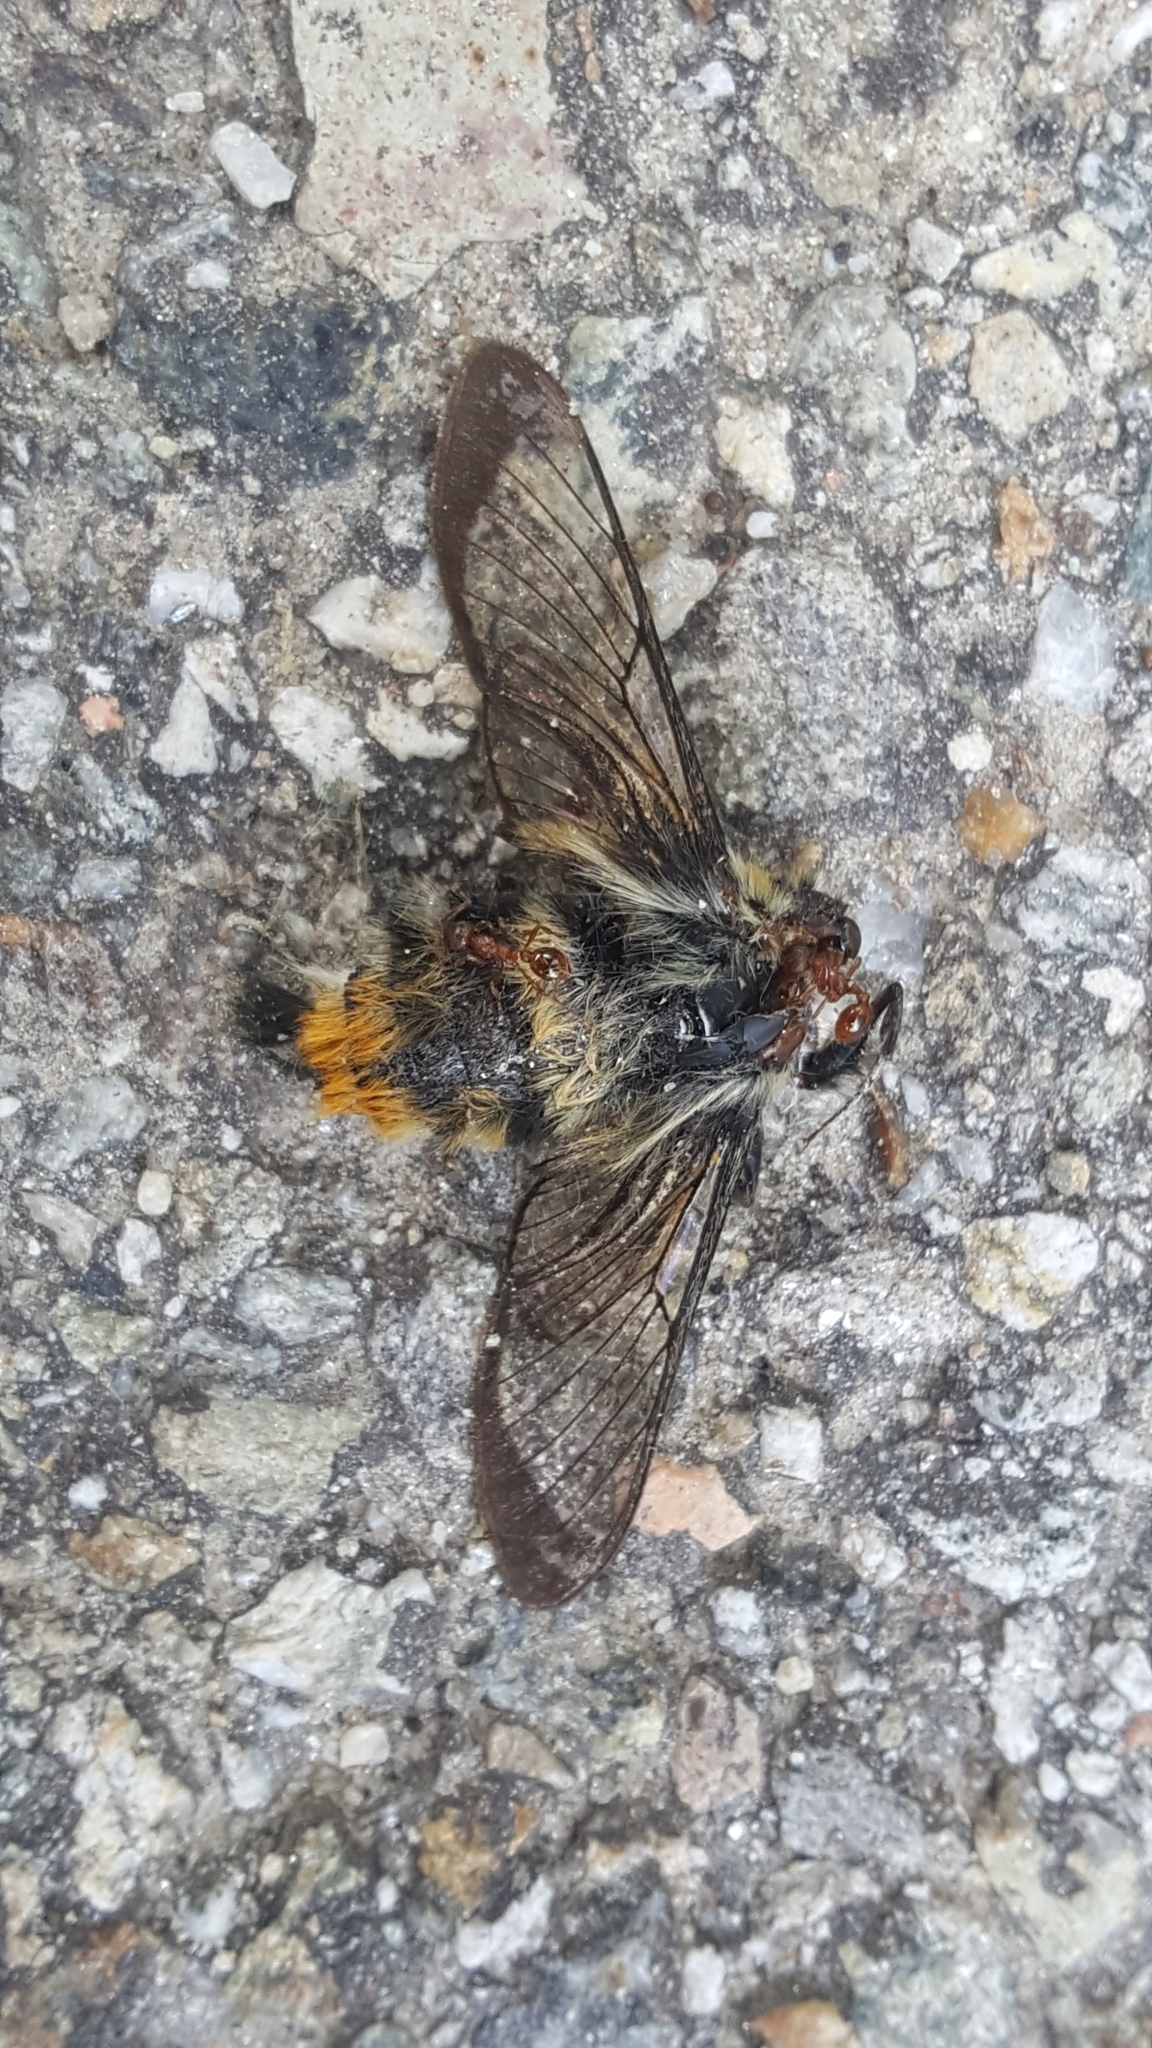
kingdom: Animalia
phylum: Arthropoda
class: Insecta
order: Lepidoptera
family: Sphingidae
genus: Hemaris
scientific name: Hemaris tityus
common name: Narrow-bordered bee hawk-moth
